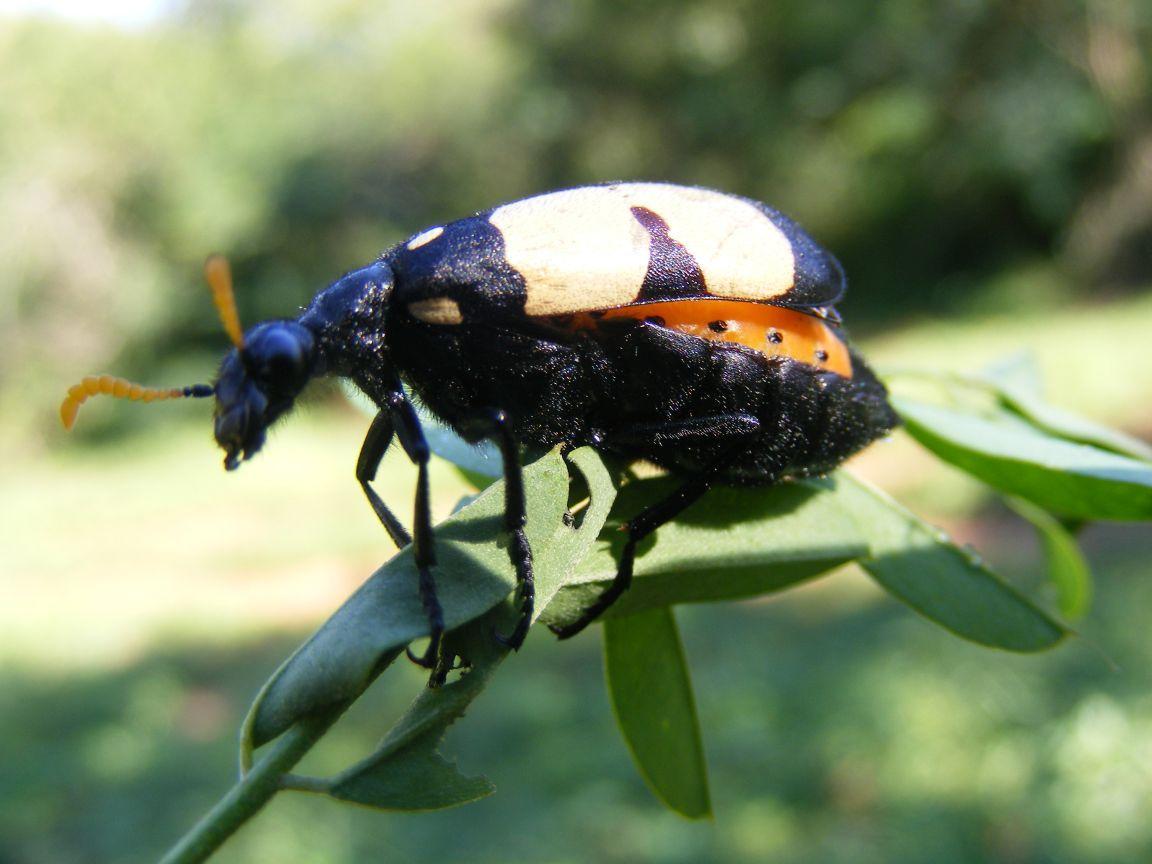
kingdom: Animalia
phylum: Arthropoda
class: Insecta
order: Coleoptera
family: Meloidae
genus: Hycleus
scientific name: Hycleus
